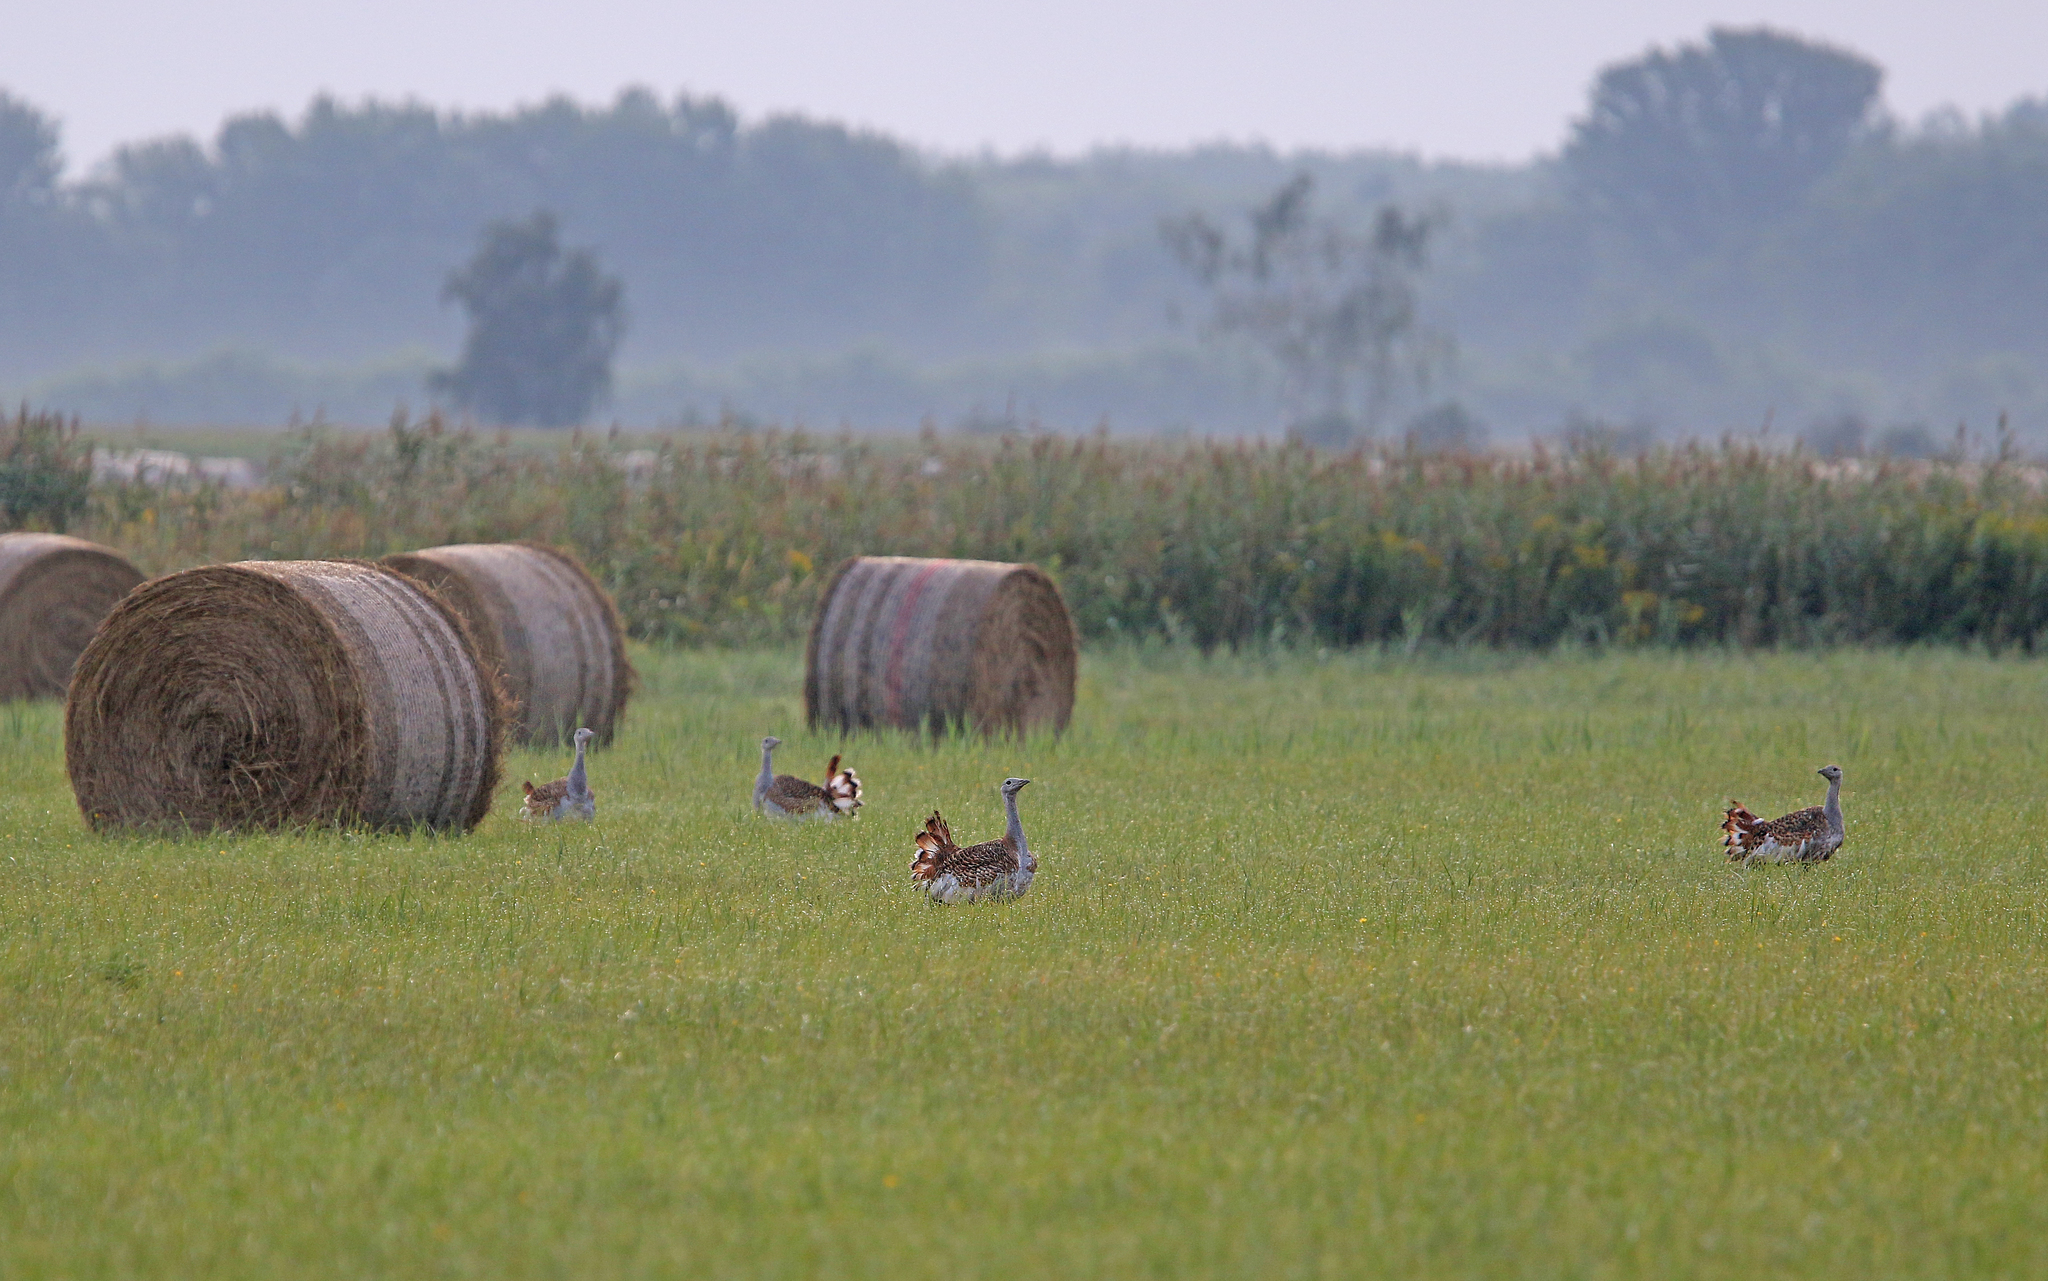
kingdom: Animalia
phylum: Chordata
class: Aves
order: Otidiformes
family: Otididae
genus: Otis
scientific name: Otis tarda
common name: Great bustard
